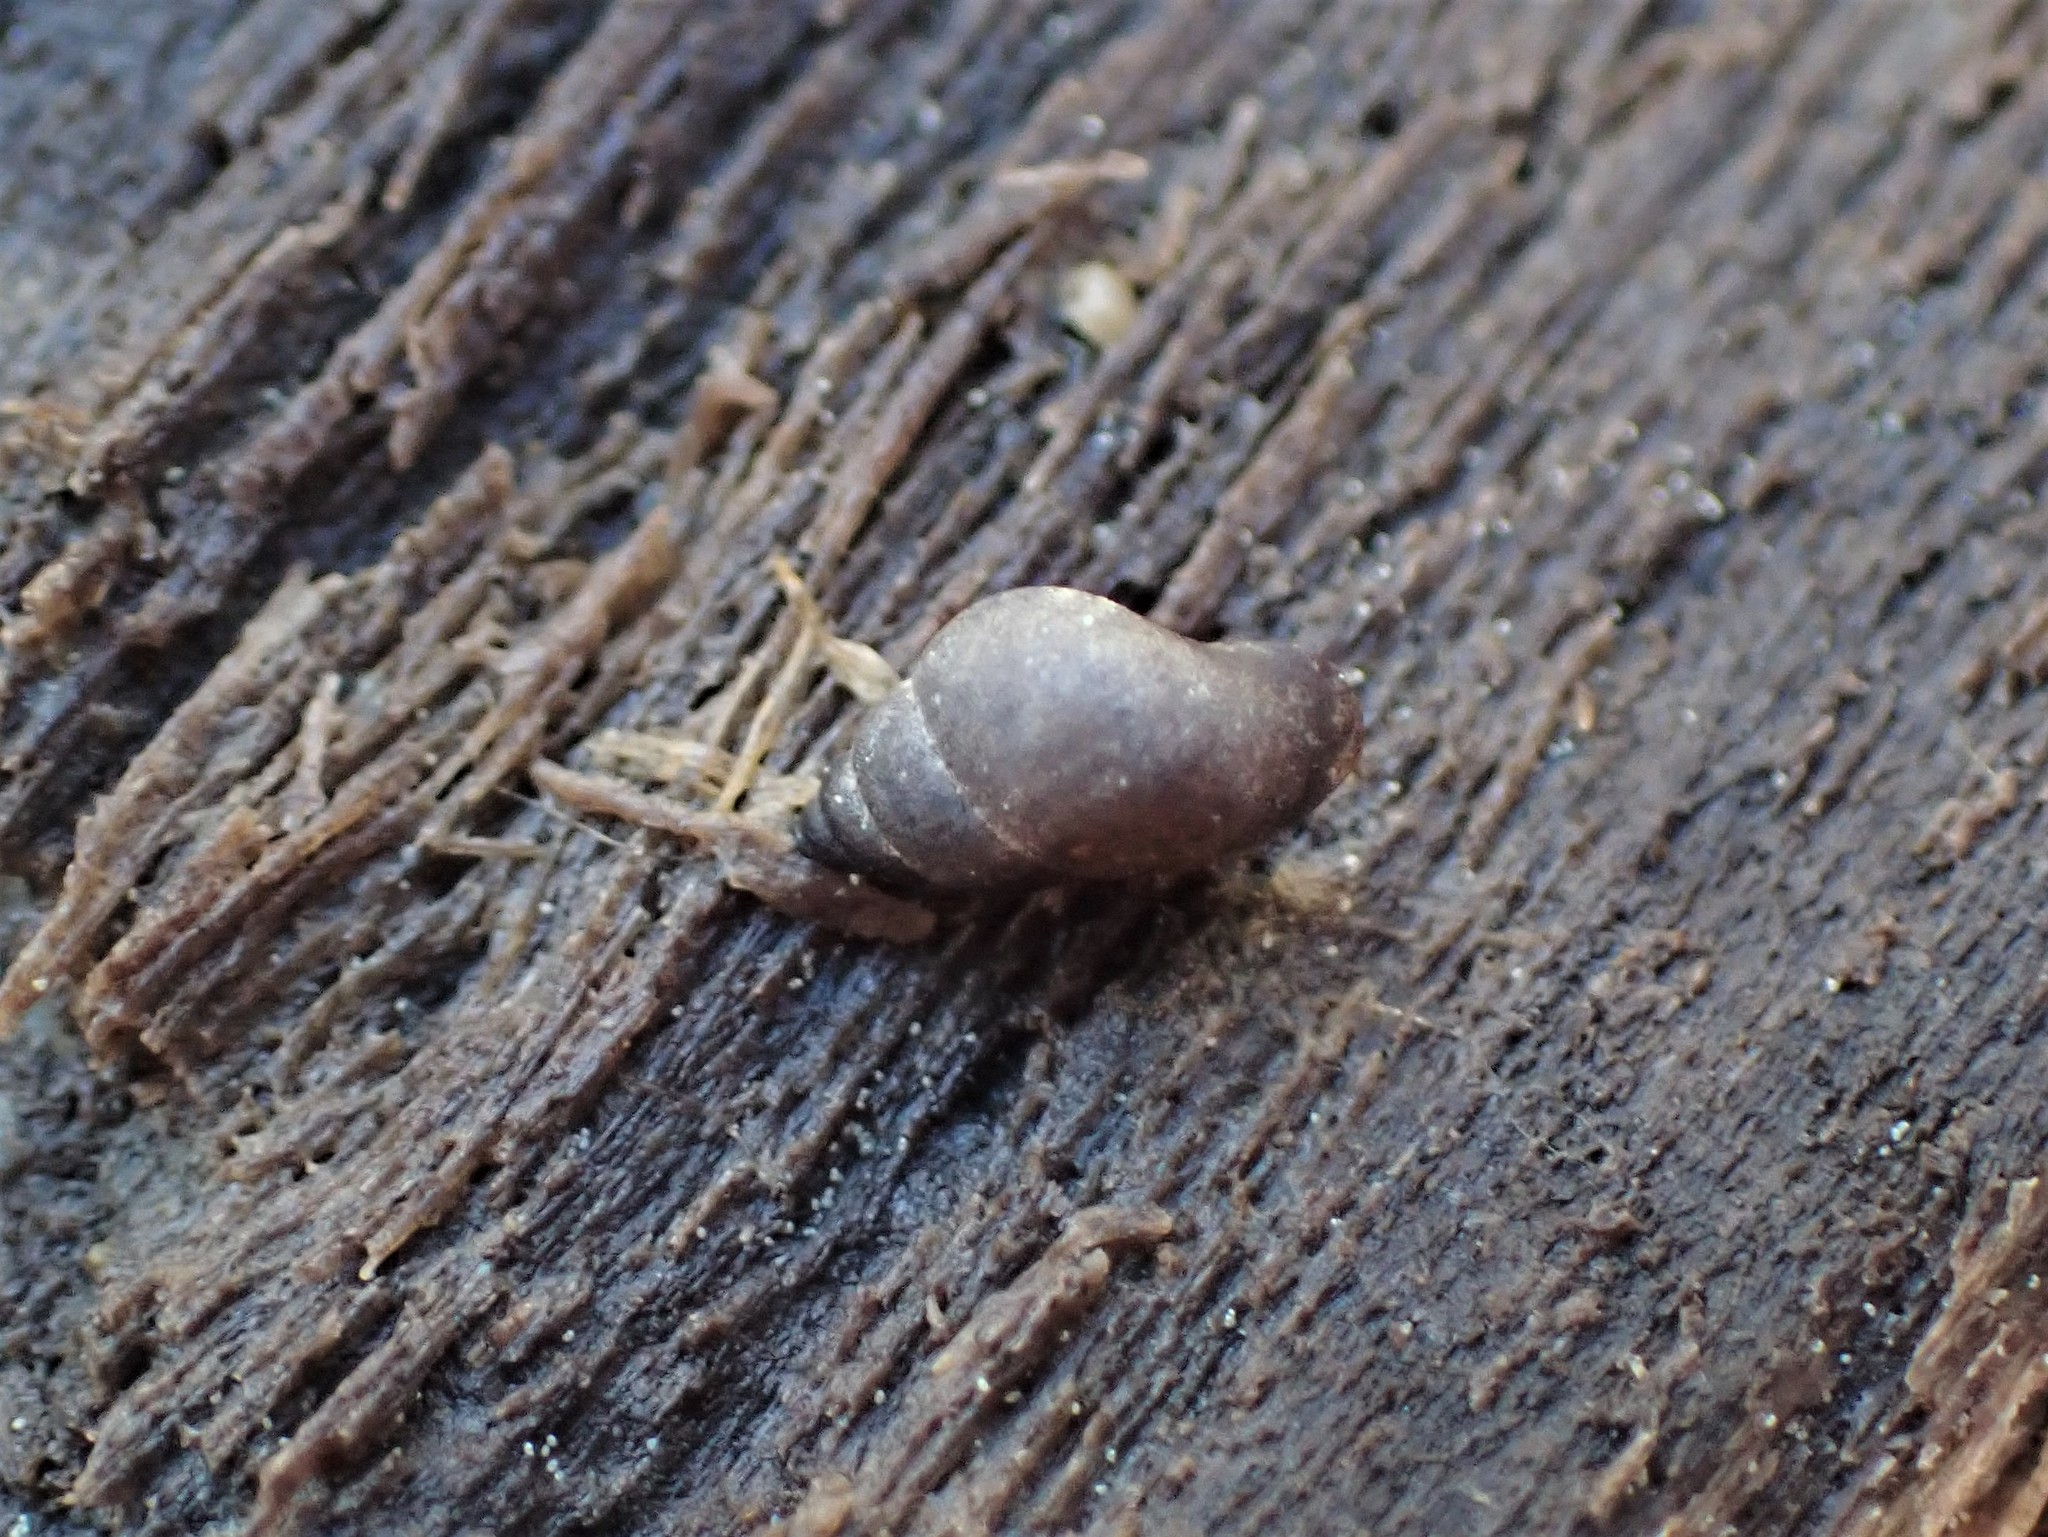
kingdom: Animalia
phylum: Mollusca
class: Gastropoda
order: Littorinimorpha
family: Tateidae
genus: Potamopyrgus
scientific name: Potamopyrgus antipodarum
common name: Jenkins' spire snail
